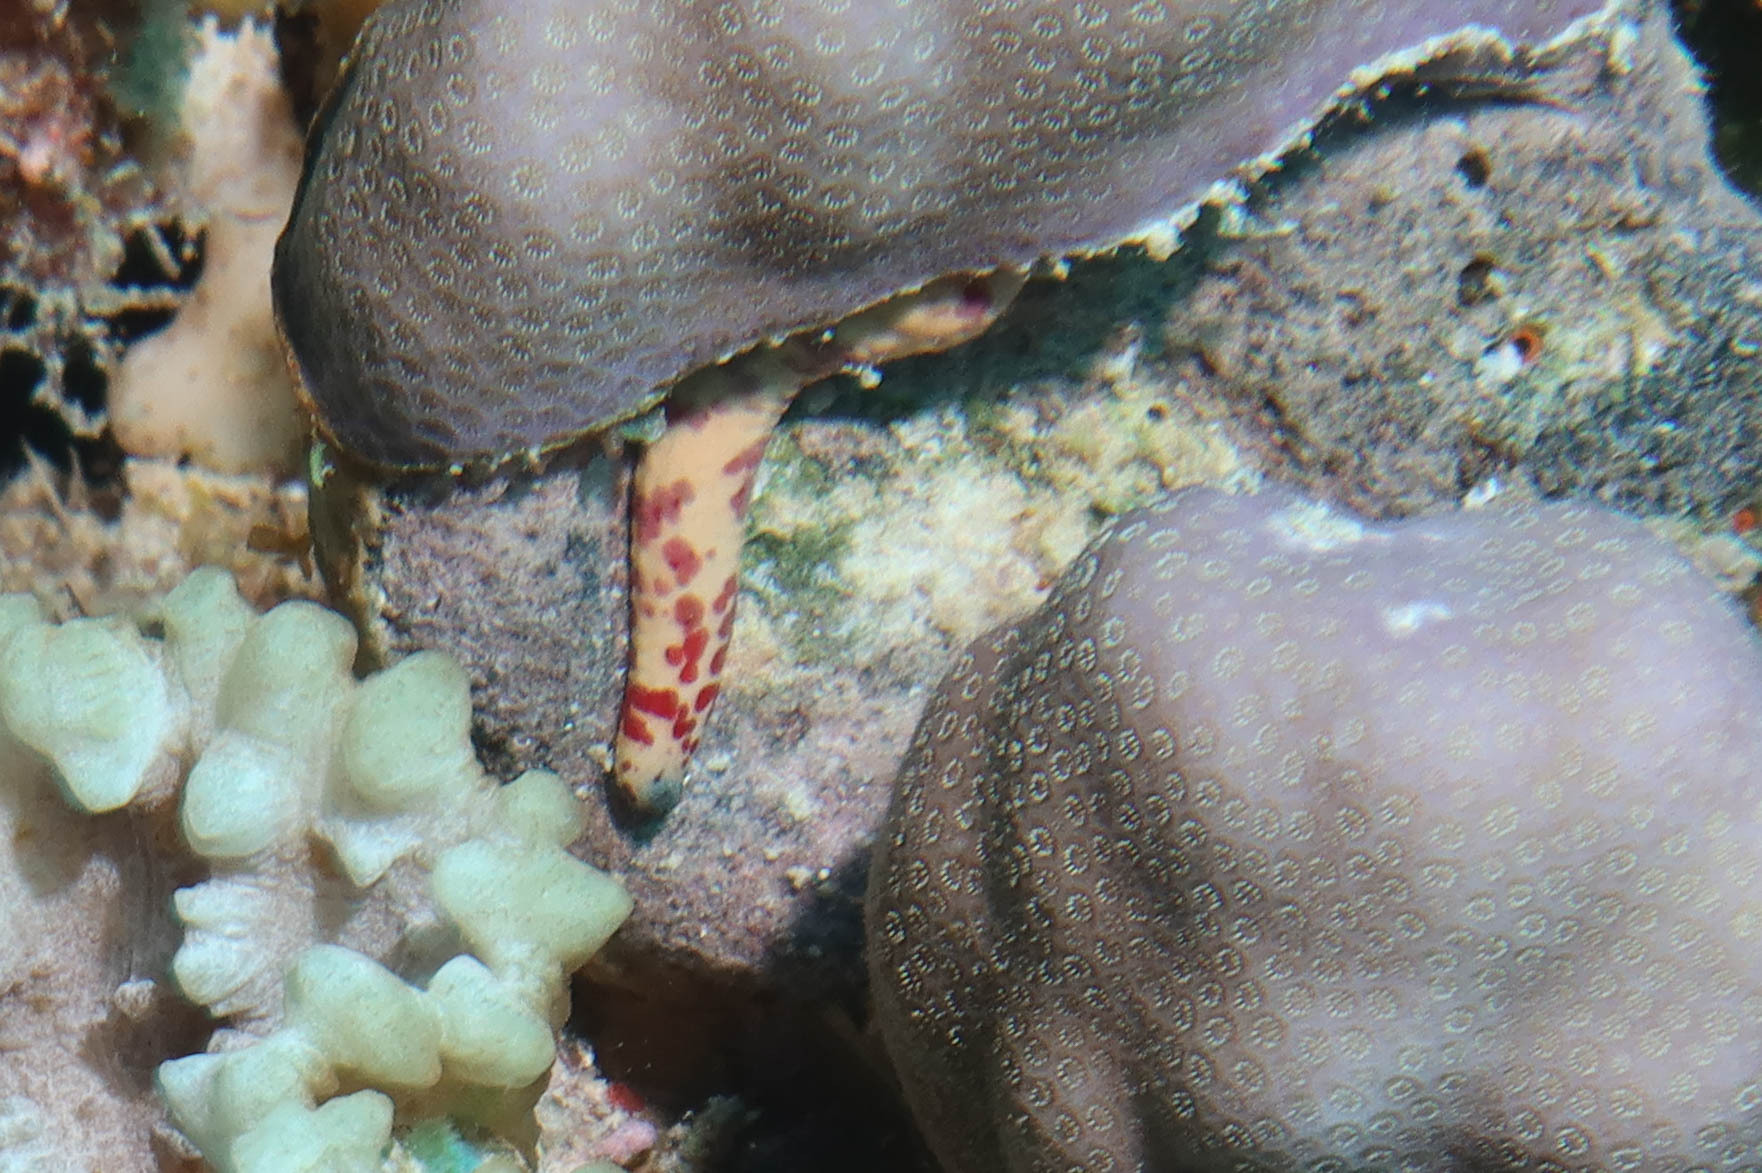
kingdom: Animalia
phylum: Echinodermata
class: Asteroidea
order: Valvatida
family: Ophidiasteridae
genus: Linckia
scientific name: Linckia multifora
